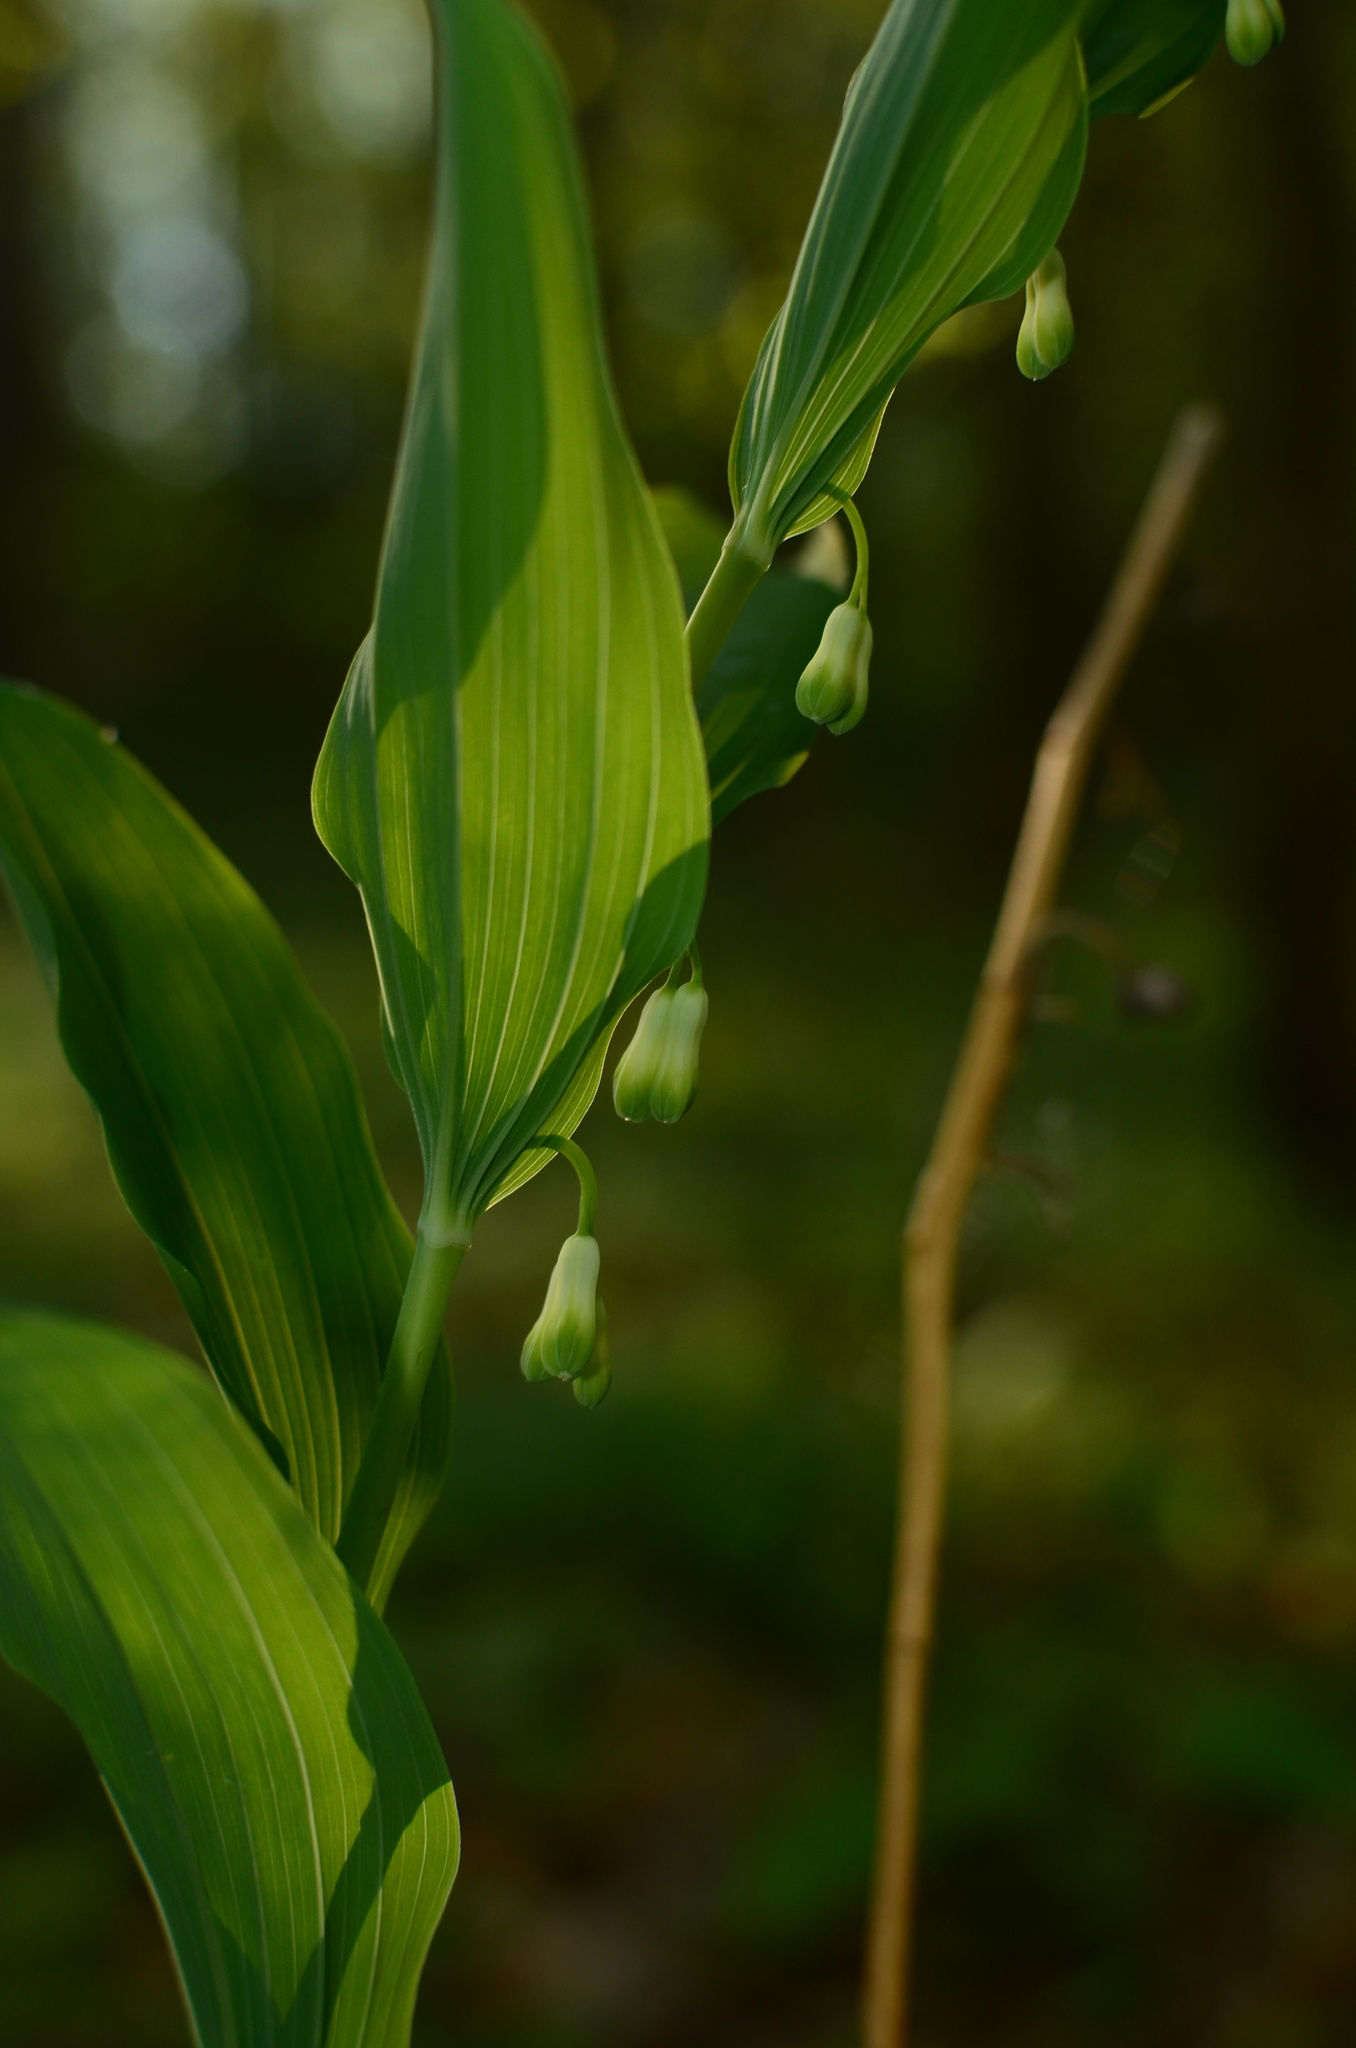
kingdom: Plantae
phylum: Tracheophyta
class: Liliopsida
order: Asparagales
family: Asparagaceae
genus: Polygonatum
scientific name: Polygonatum
